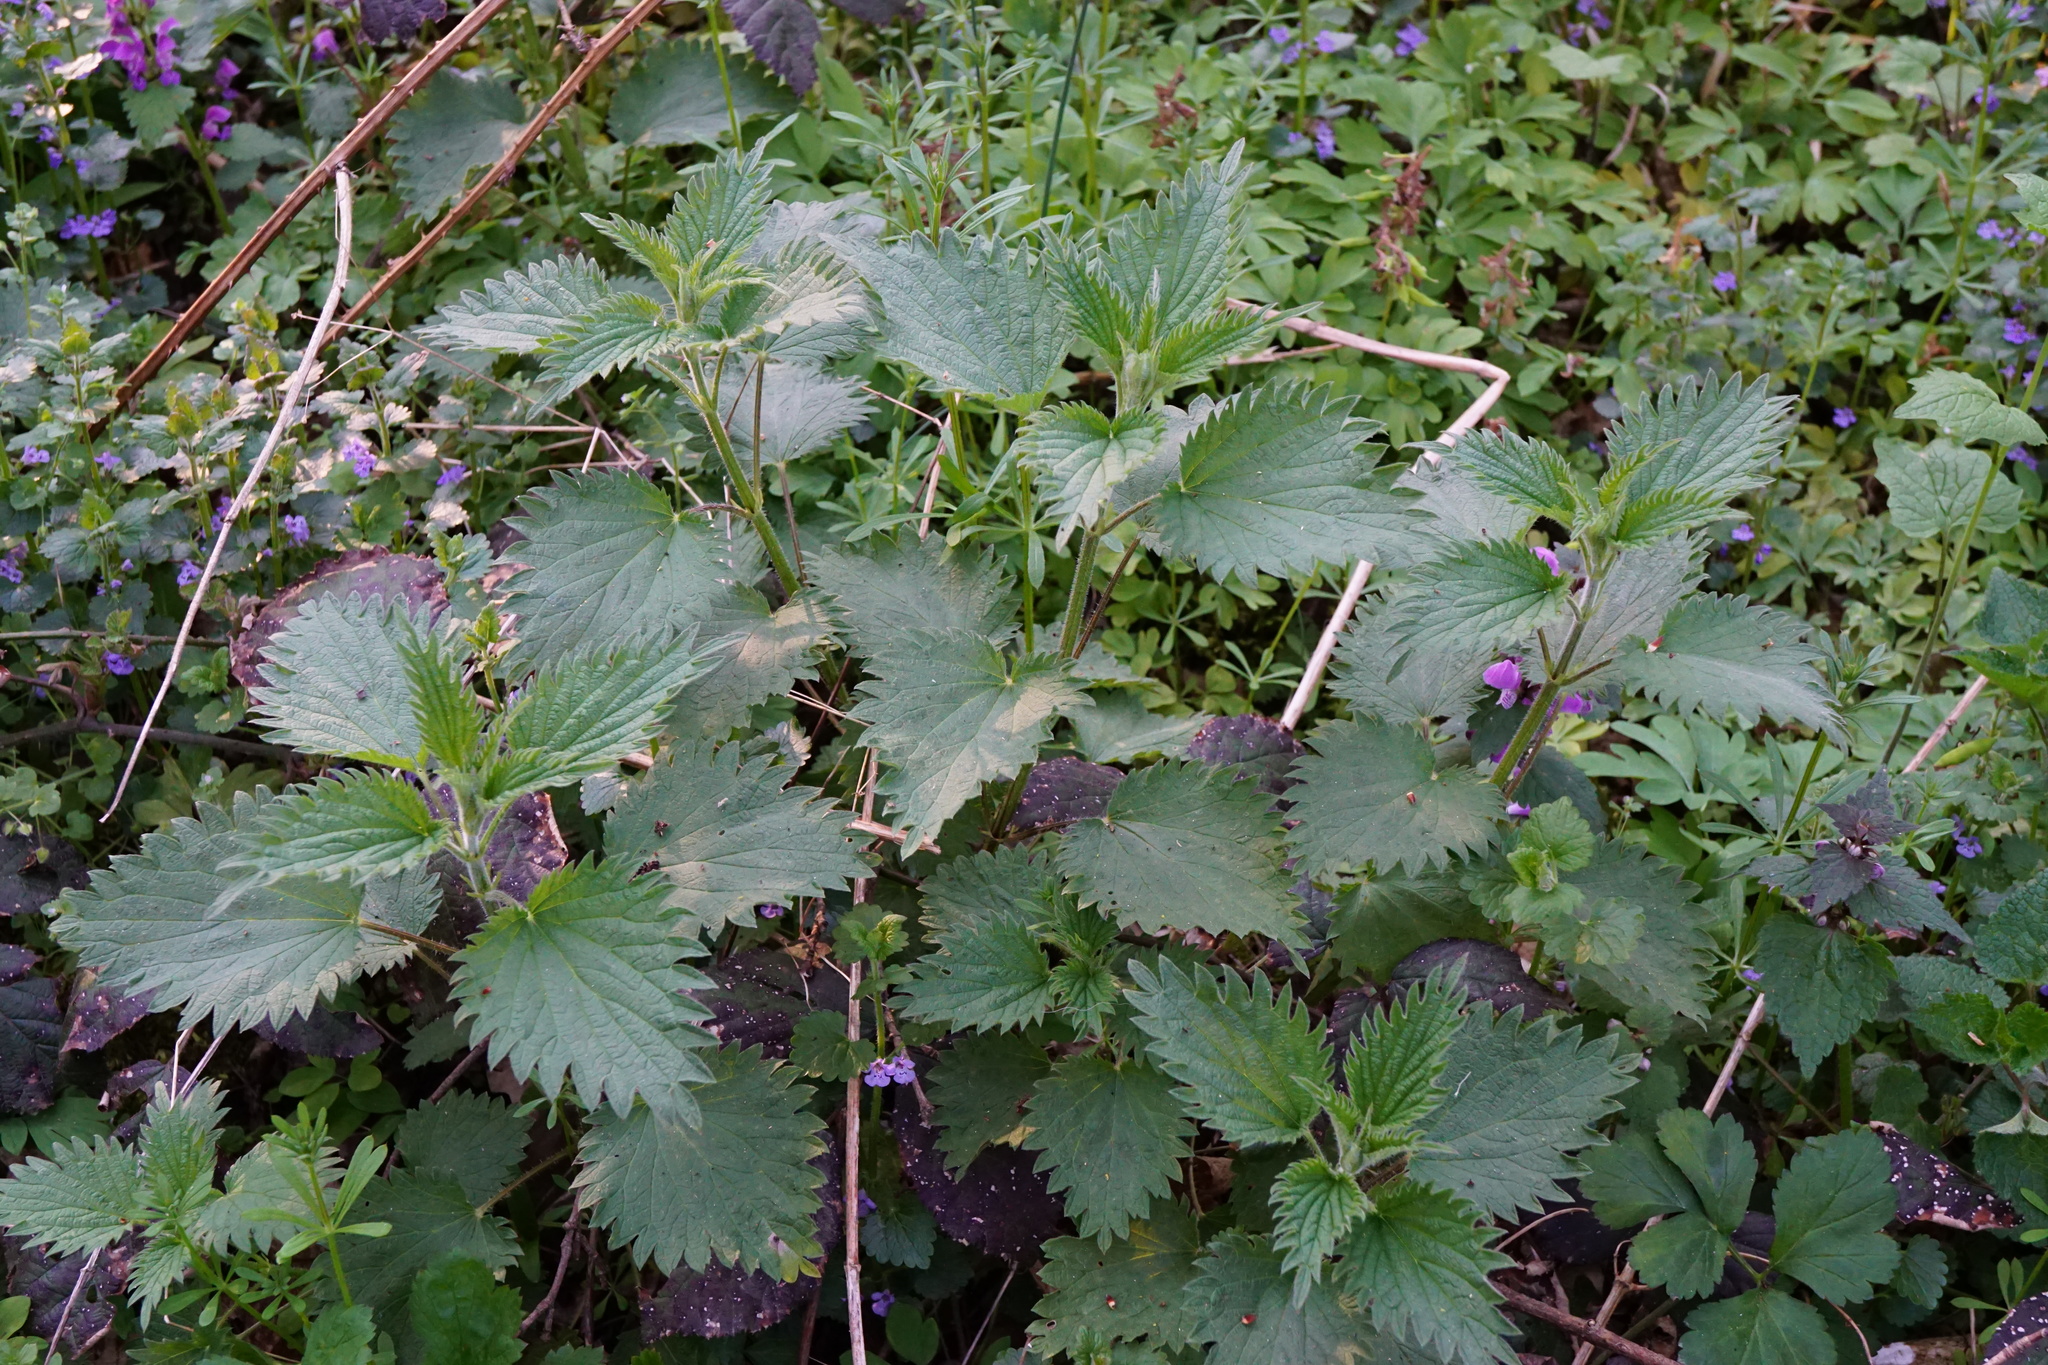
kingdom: Plantae
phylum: Tracheophyta
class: Magnoliopsida
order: Rosales
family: Urticaceae
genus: Urtica
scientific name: Urtica dioica
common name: Common nettle
